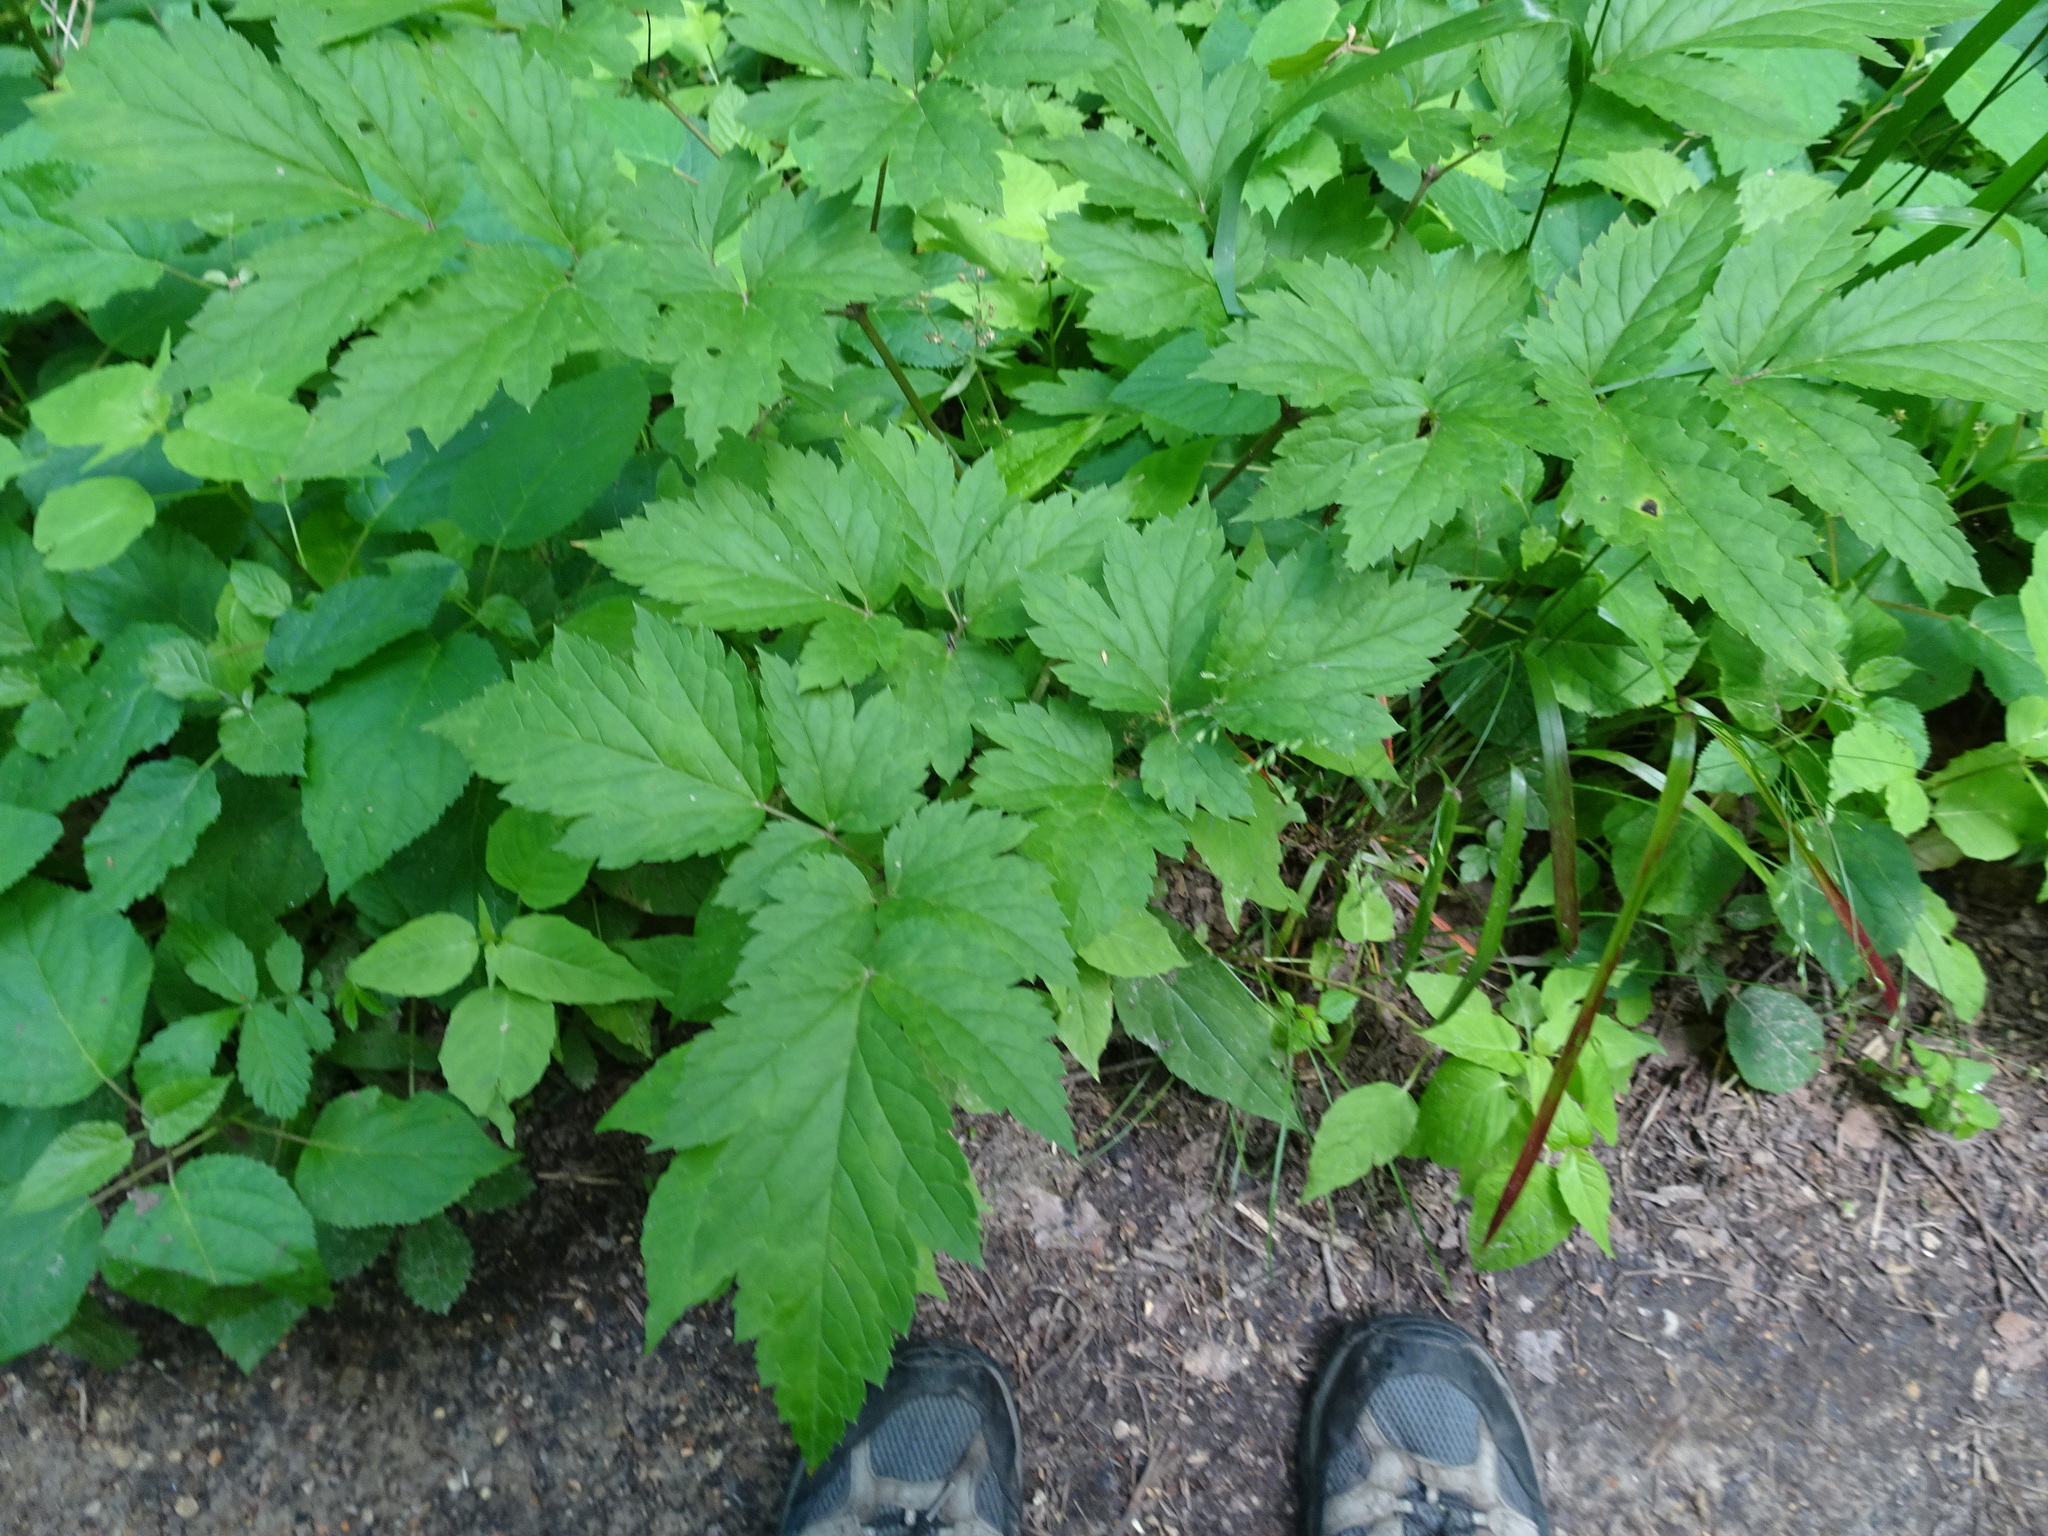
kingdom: Plantae
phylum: Tracheophyta
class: Magnoliopsida
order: Ranunculales
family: Ranunculaceae
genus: Actaea
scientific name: Actaea racemosa
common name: Black cohosh
